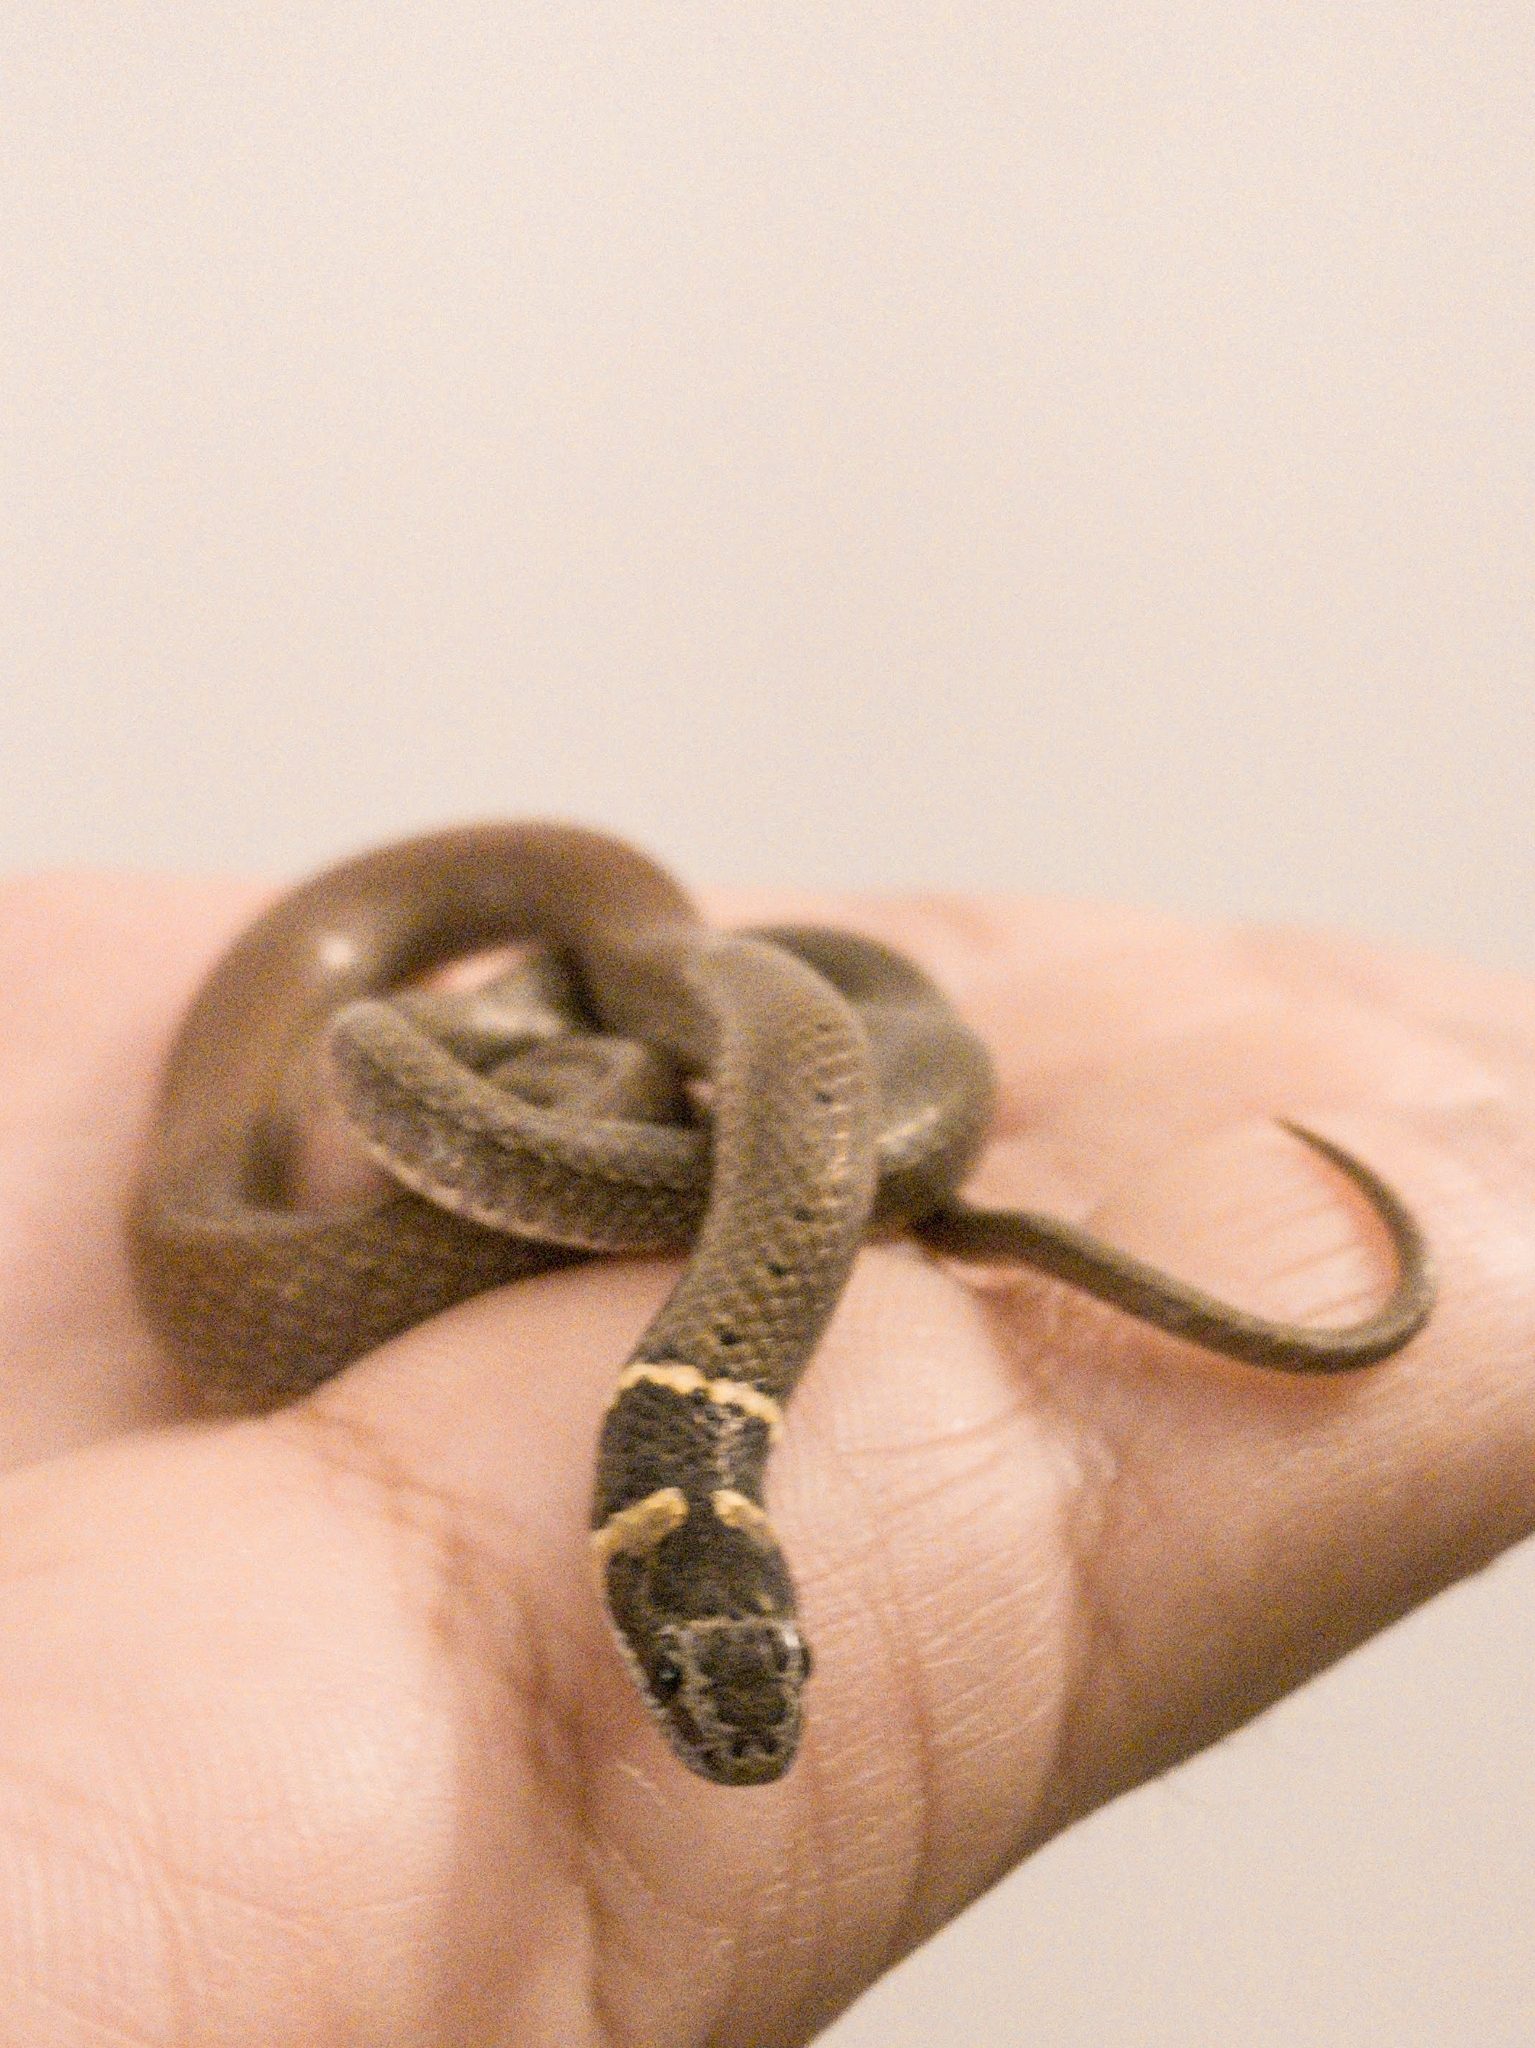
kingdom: Animalia
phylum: Chordata
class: Squamata
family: Colubridae
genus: Sibynophis
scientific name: Sibynophis subpunctatus
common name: Black-headed snake
